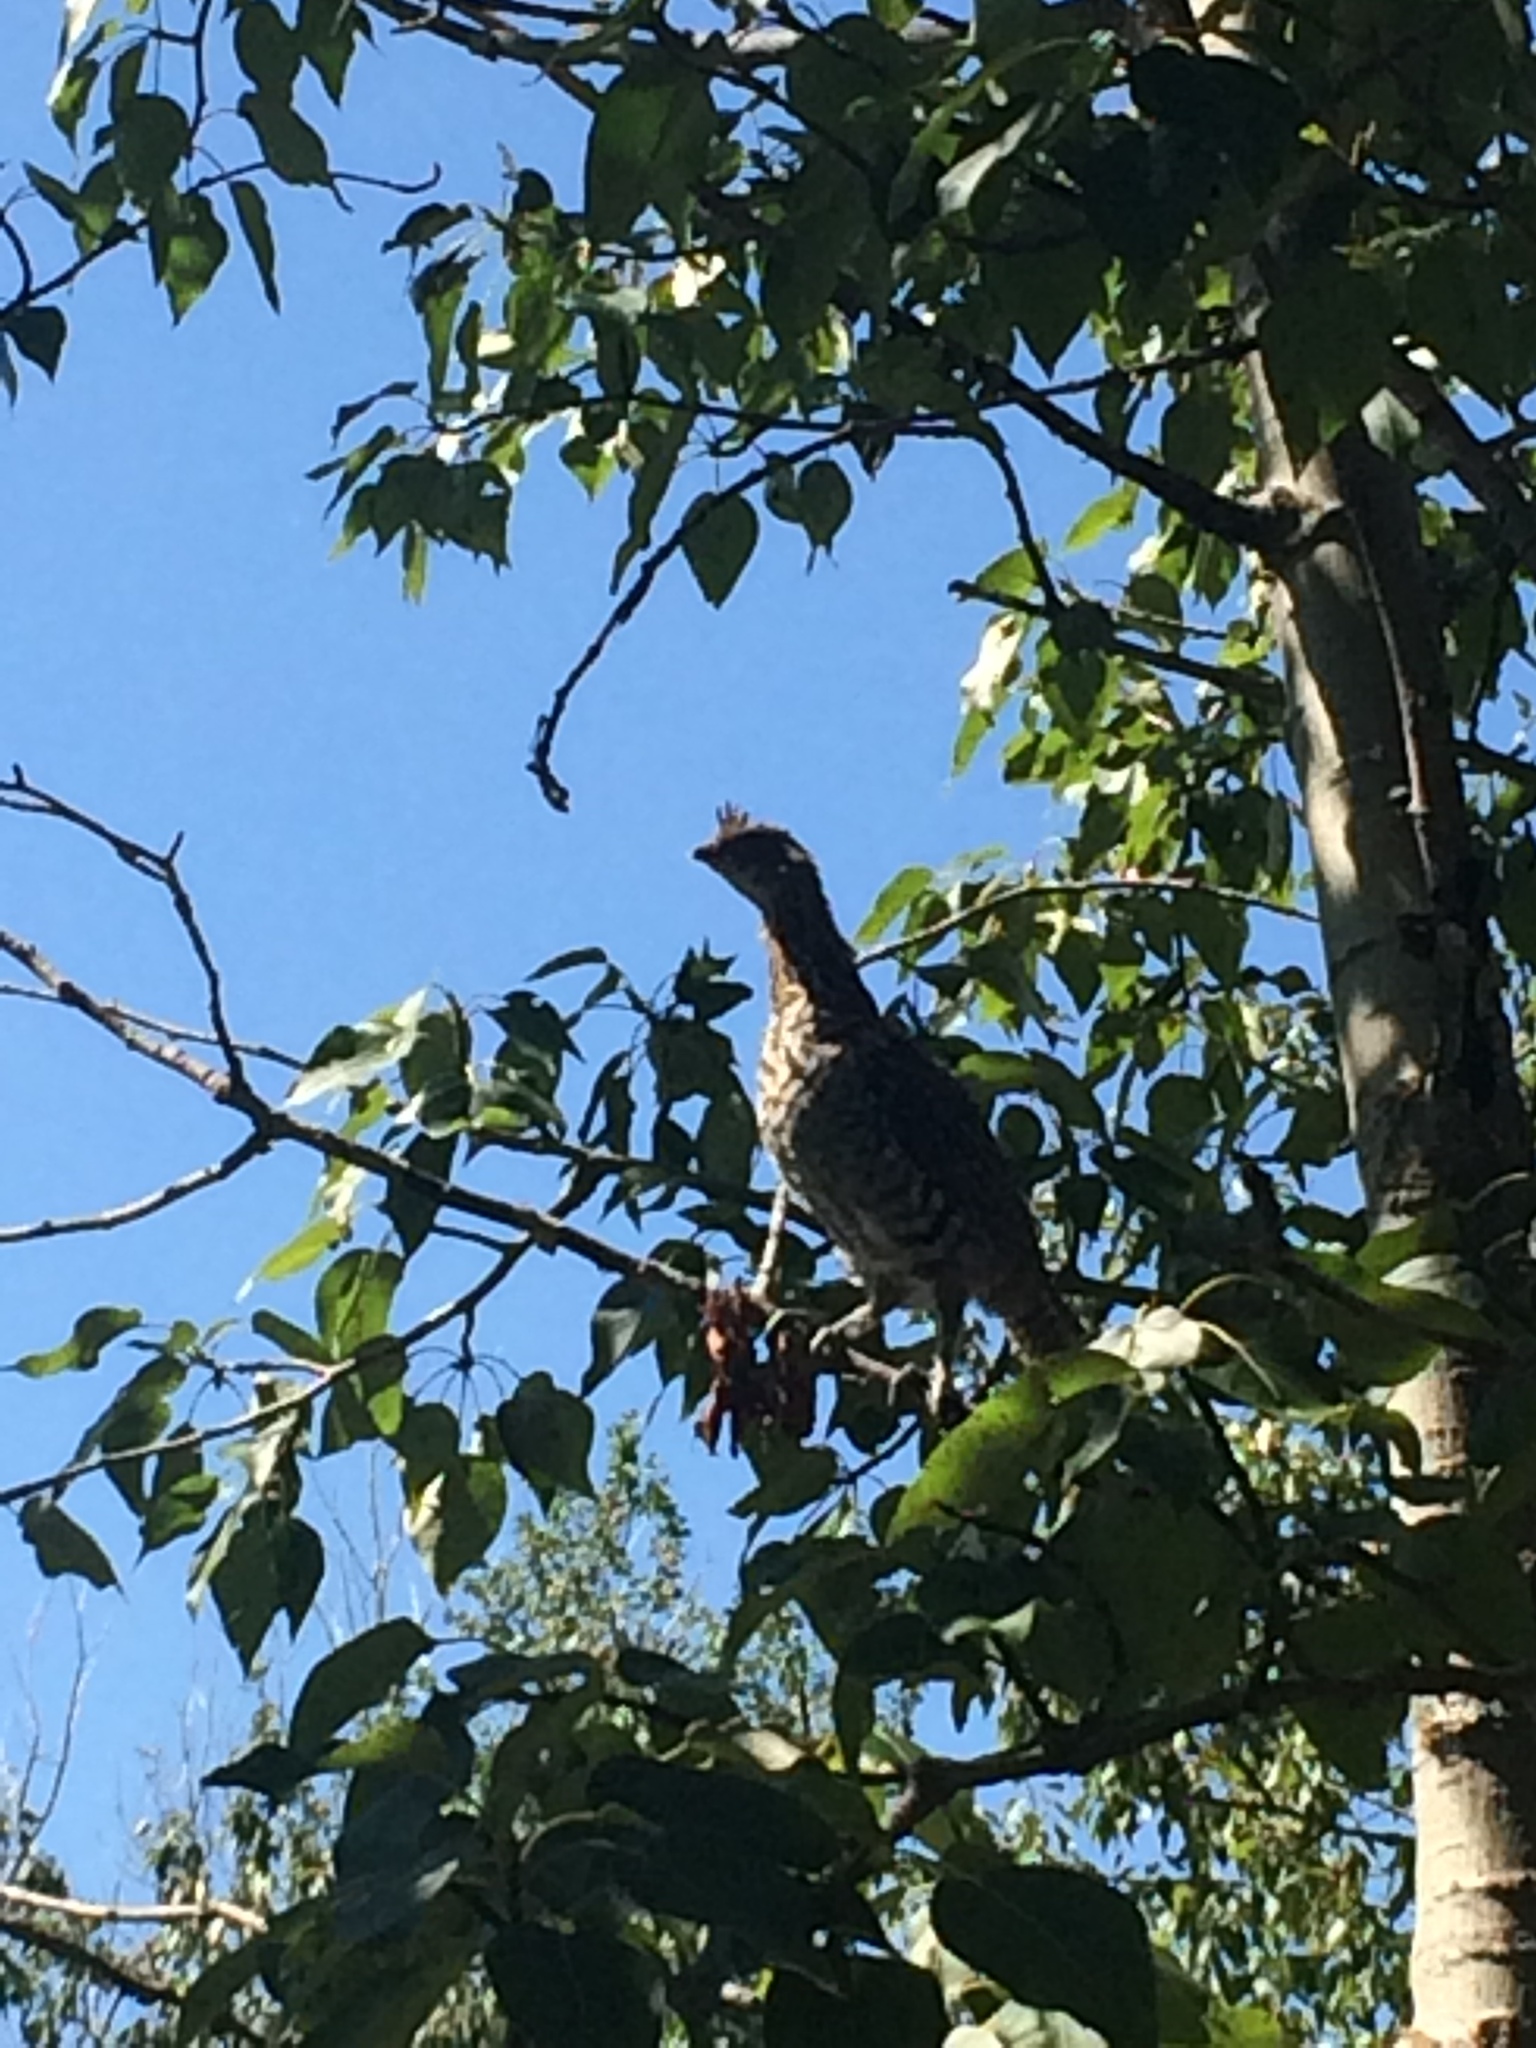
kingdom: Animalia
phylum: Chordata
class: Aves
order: Galliformes
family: Phasianidae
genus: Bonasa
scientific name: Bonasa umbellus
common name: Ruffed grouse
